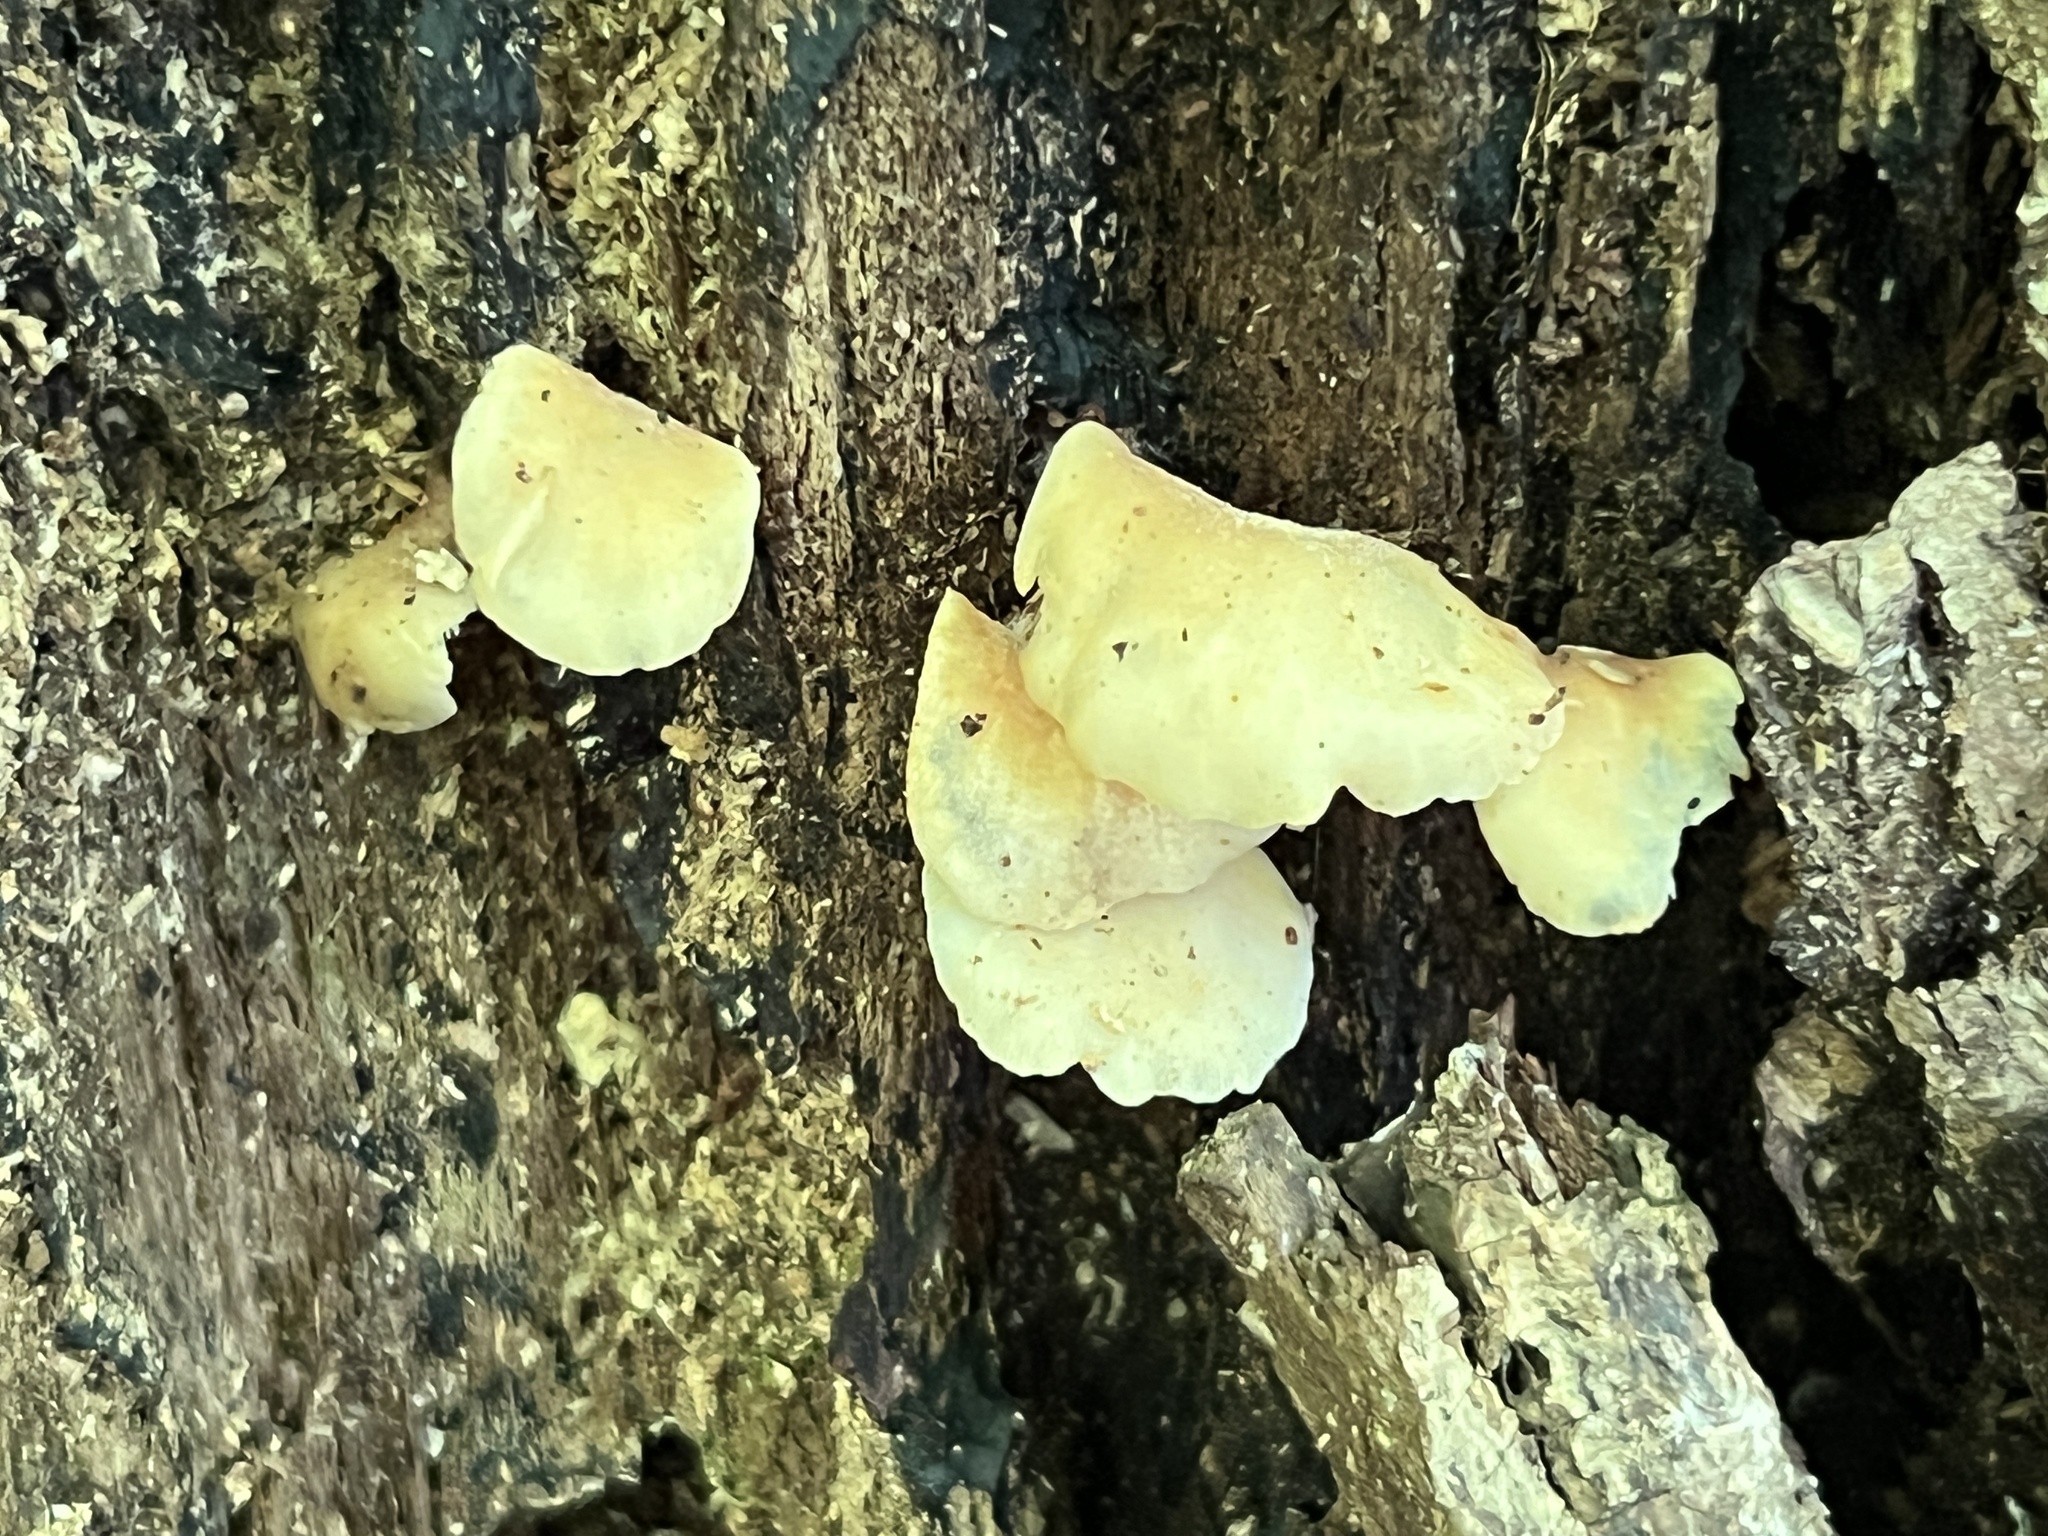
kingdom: Fungi
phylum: Basidiomycota
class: Agaricomycetes
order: Agaricales
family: Crepidotaceae
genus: Crepidotus
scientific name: Crepidotus stipitatus
